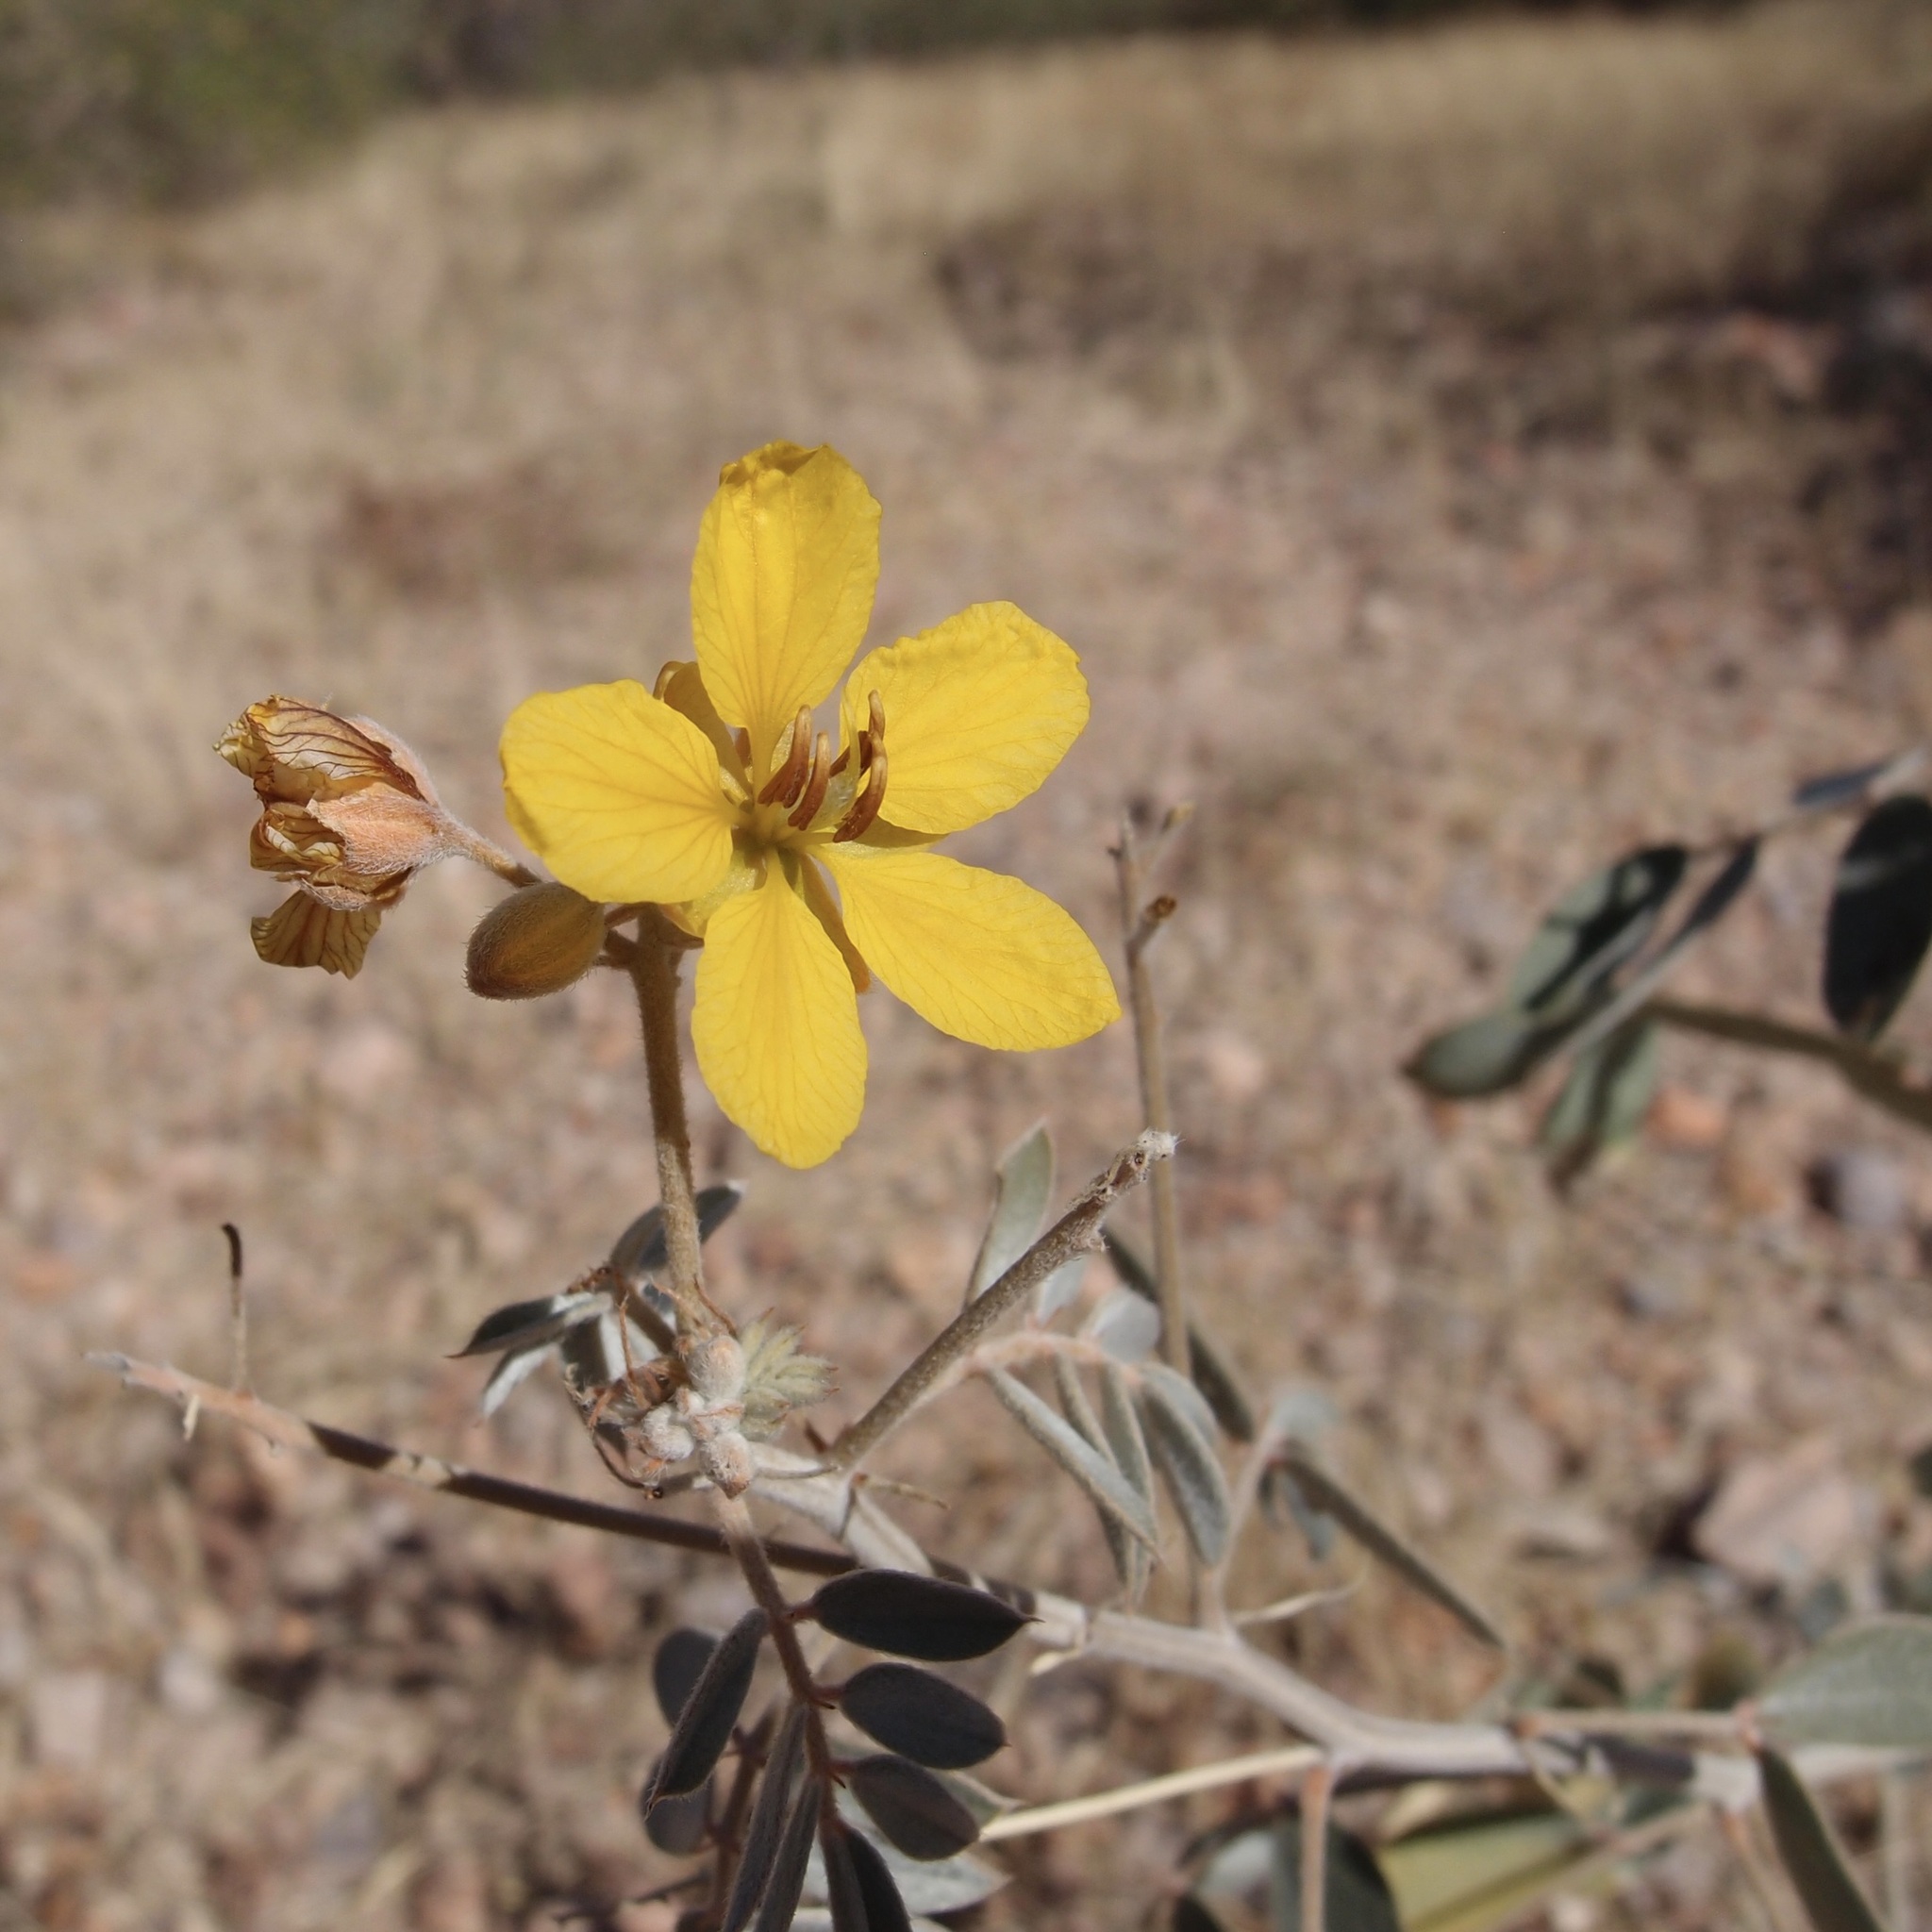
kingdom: Plantae
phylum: Tracheophyta
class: Magnoliopsida
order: Fabales
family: Fabaceae
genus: Senna
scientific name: Senna covesii
